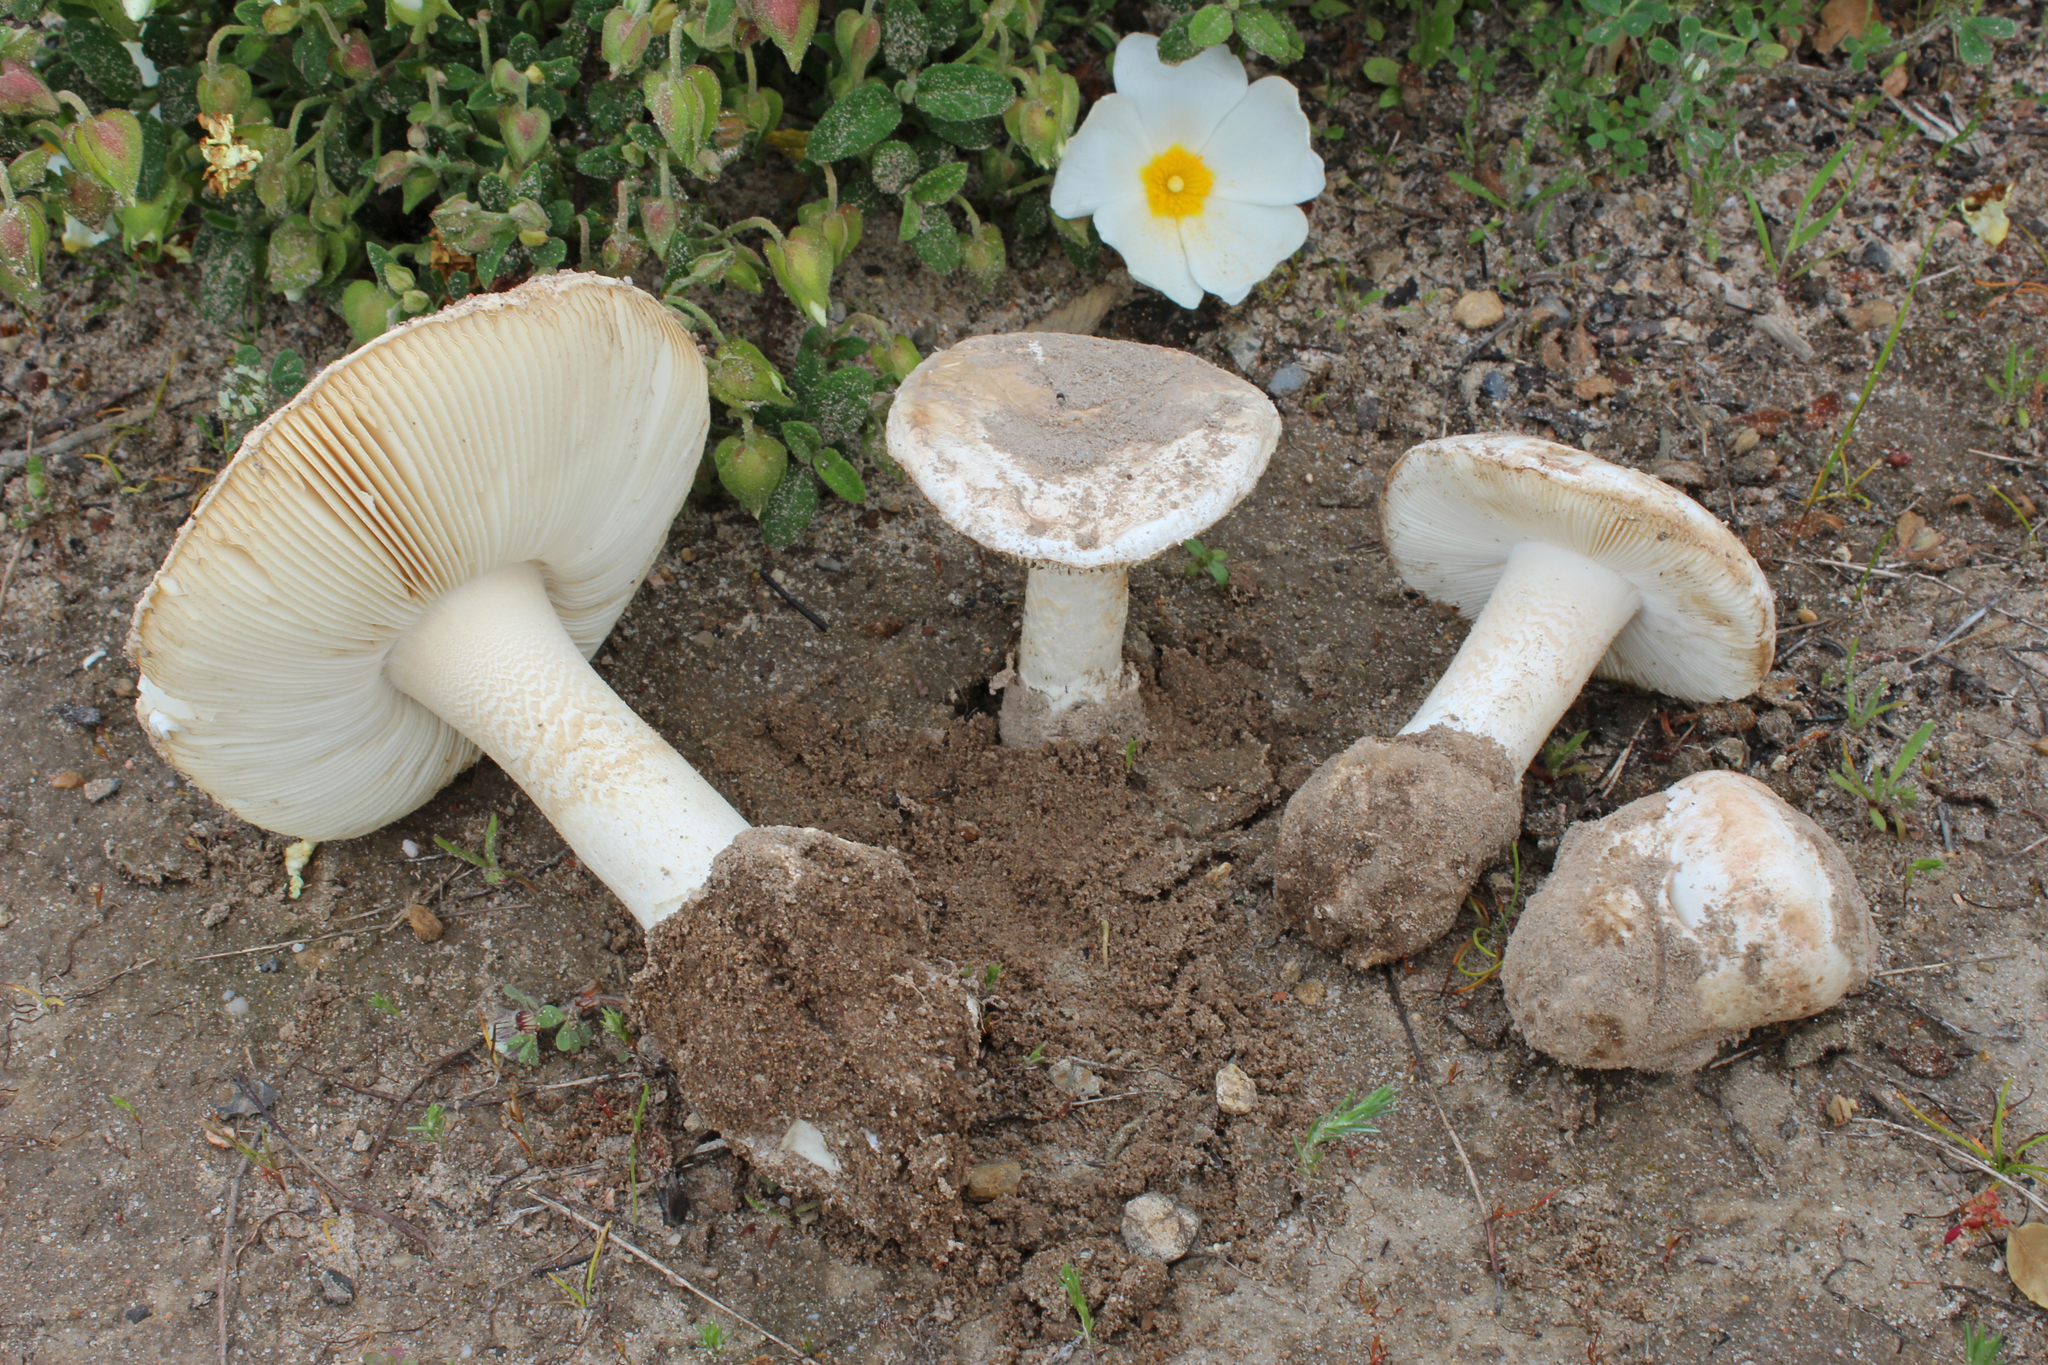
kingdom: Fungi
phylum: Basidiomycota
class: Agaricomycetes
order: Agaricales
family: Amanitaceae
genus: Amanita
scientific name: Amanita curtipes
